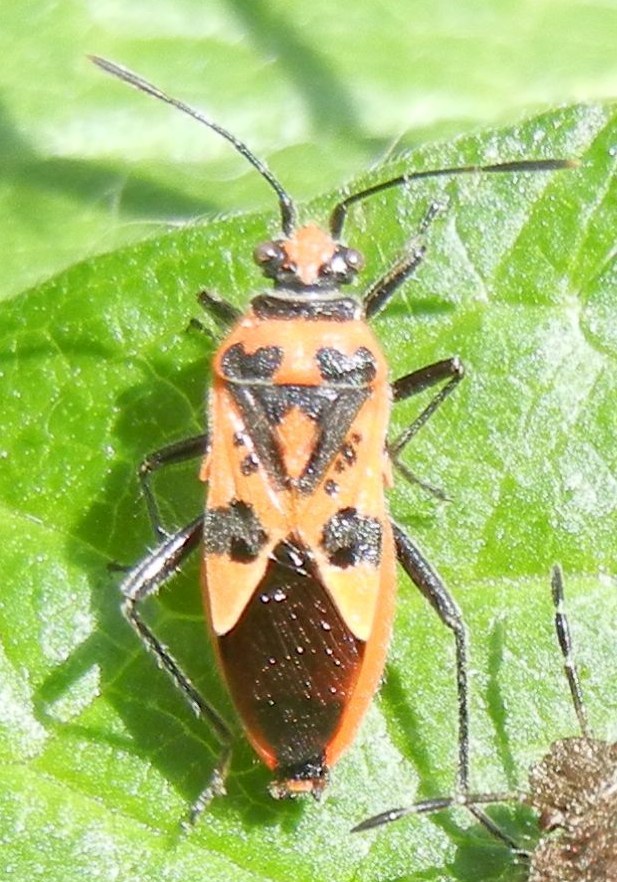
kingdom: Animalia
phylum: Arthropoda
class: Insecta
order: Hemiptera
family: Rhopalidae
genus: Corizus
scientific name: Corizus hyoscyami
